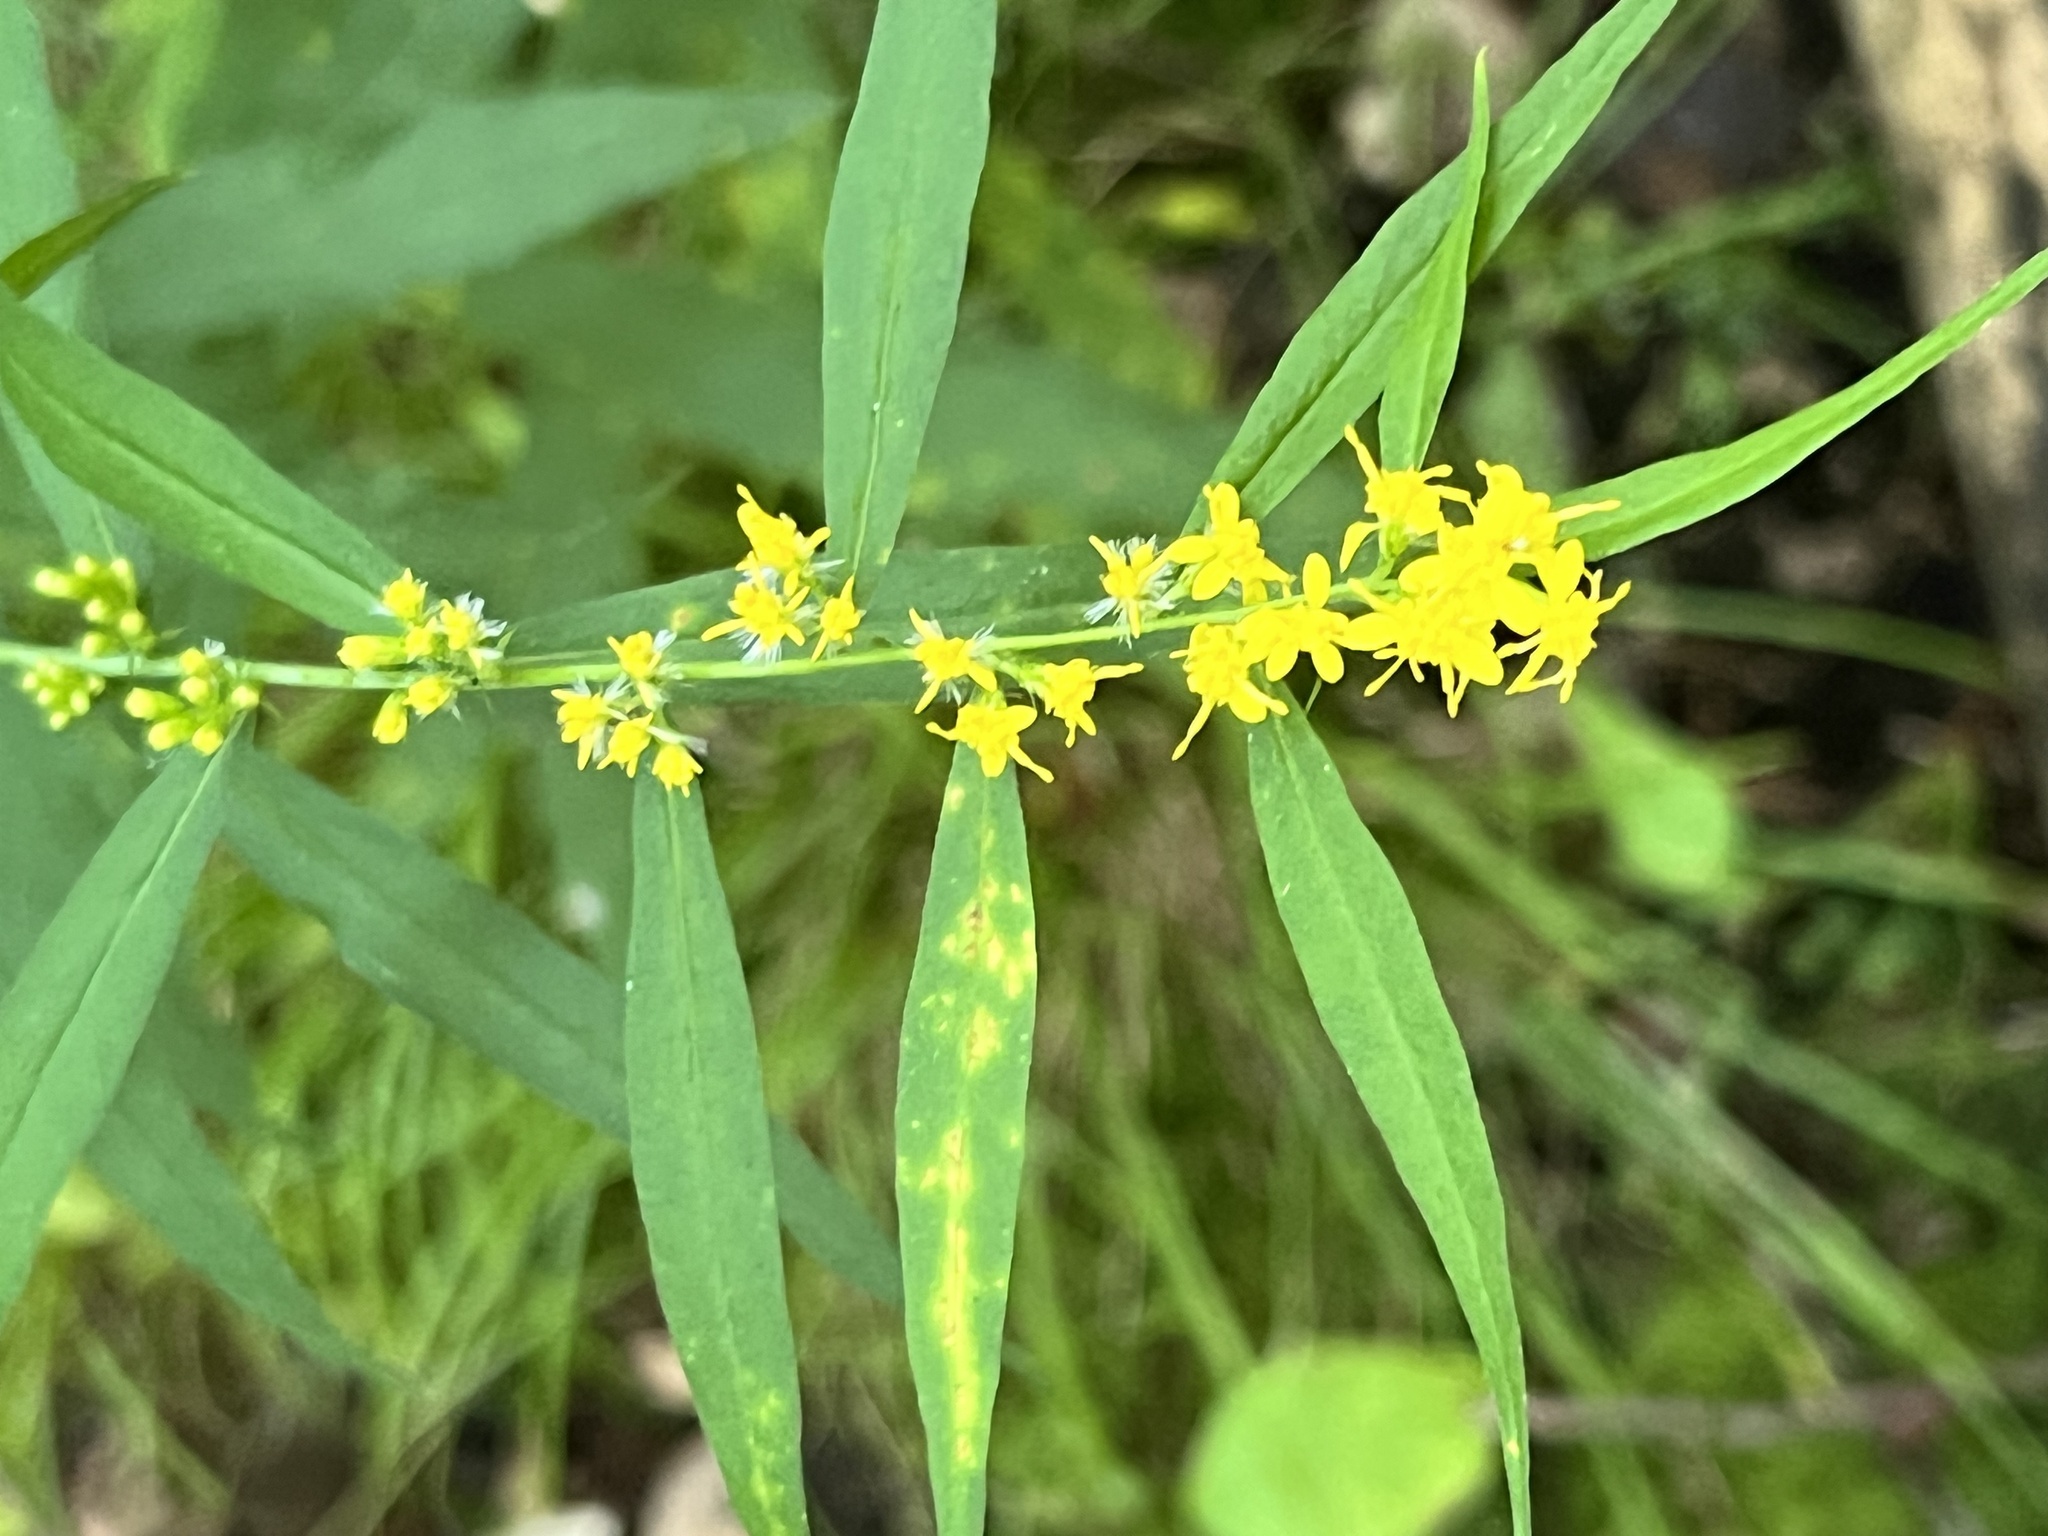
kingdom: Plantae
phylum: Tracheophyta
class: Magnoliopsida
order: Asterales
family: Asteraceae
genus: Solidago
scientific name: Solidago caesia
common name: Woodland goldenrod
